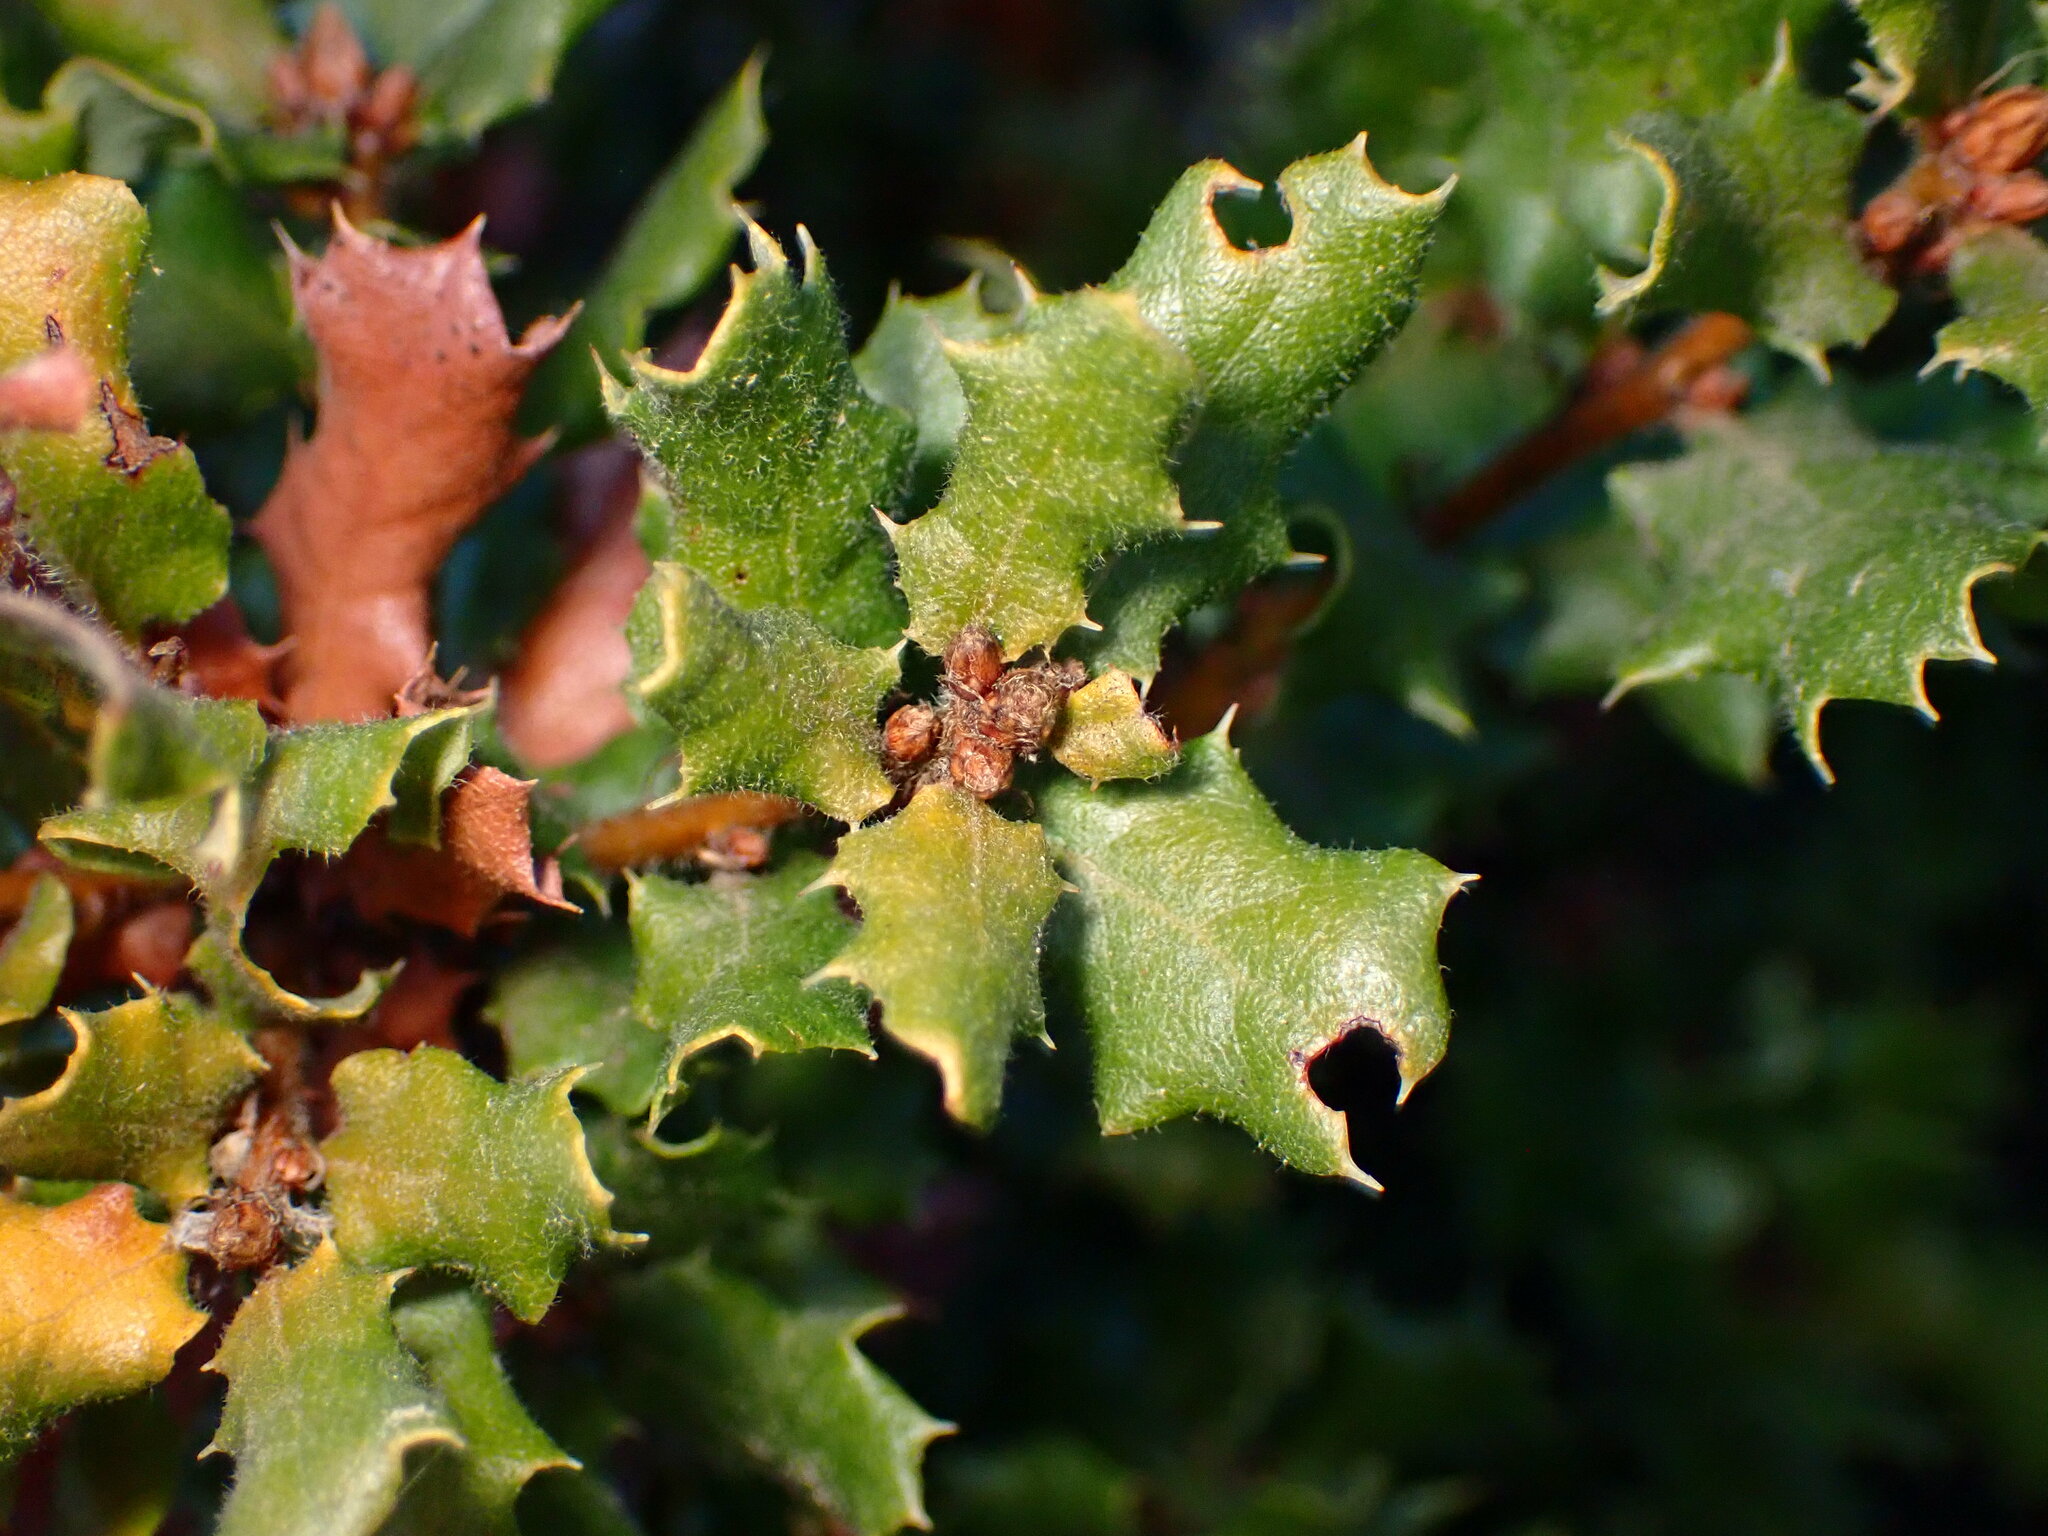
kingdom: Plantae
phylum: Tracheophyta
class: Magnoliopsida
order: Fagales
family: Fagaceae
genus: Quercus
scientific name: Quercus durata
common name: Leather oak
